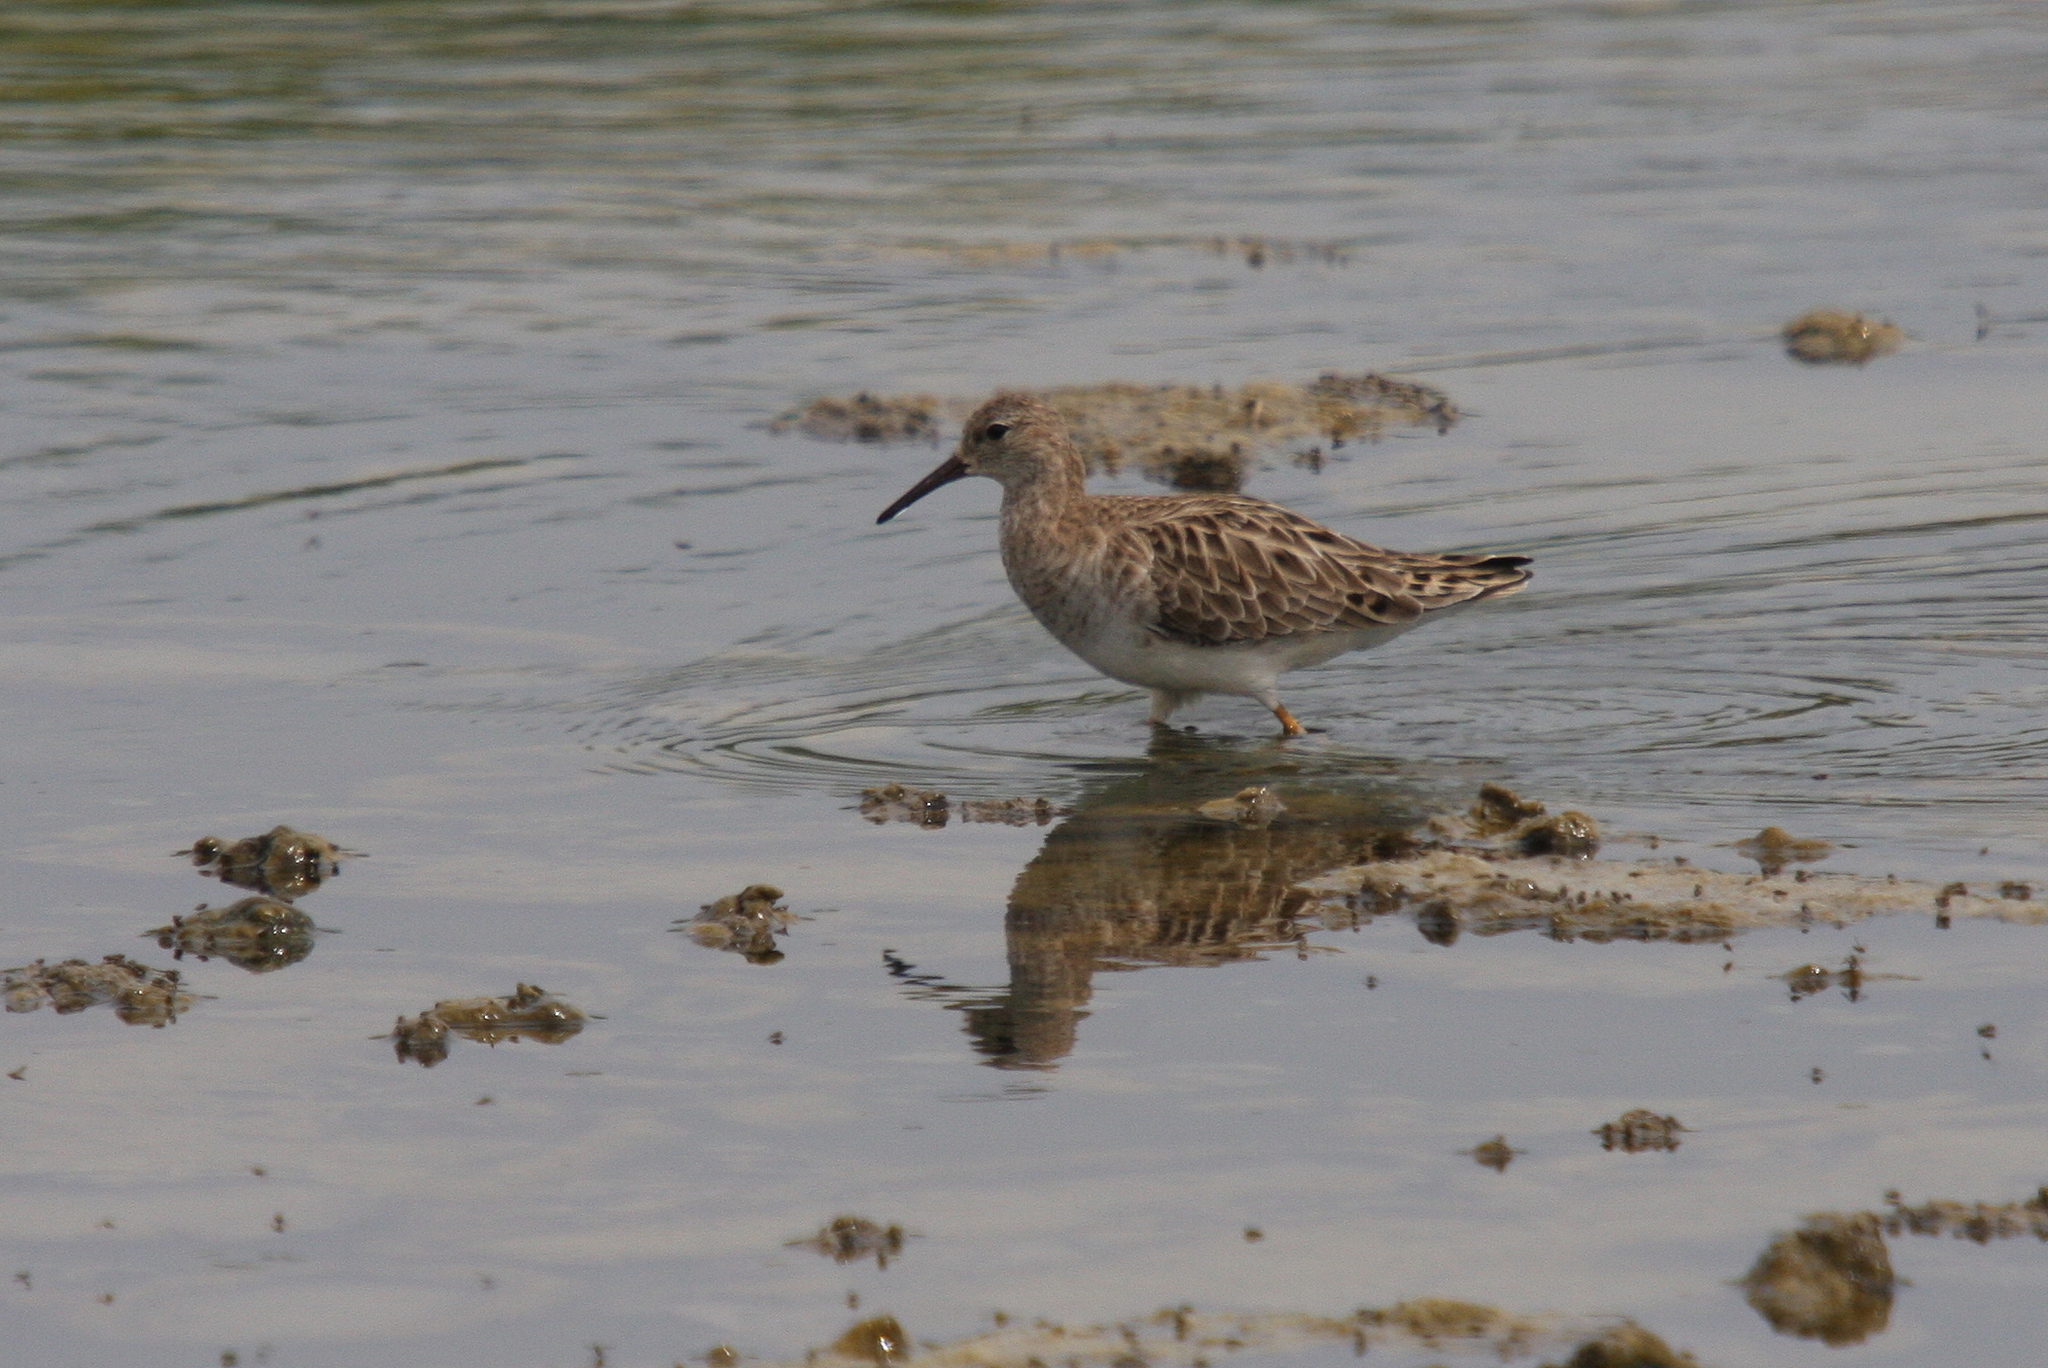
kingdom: Animalia
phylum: Chordata
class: Aves
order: Charadriiformes
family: Scolopacidae
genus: Calidris
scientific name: Calidris pugnax
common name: Ruff
